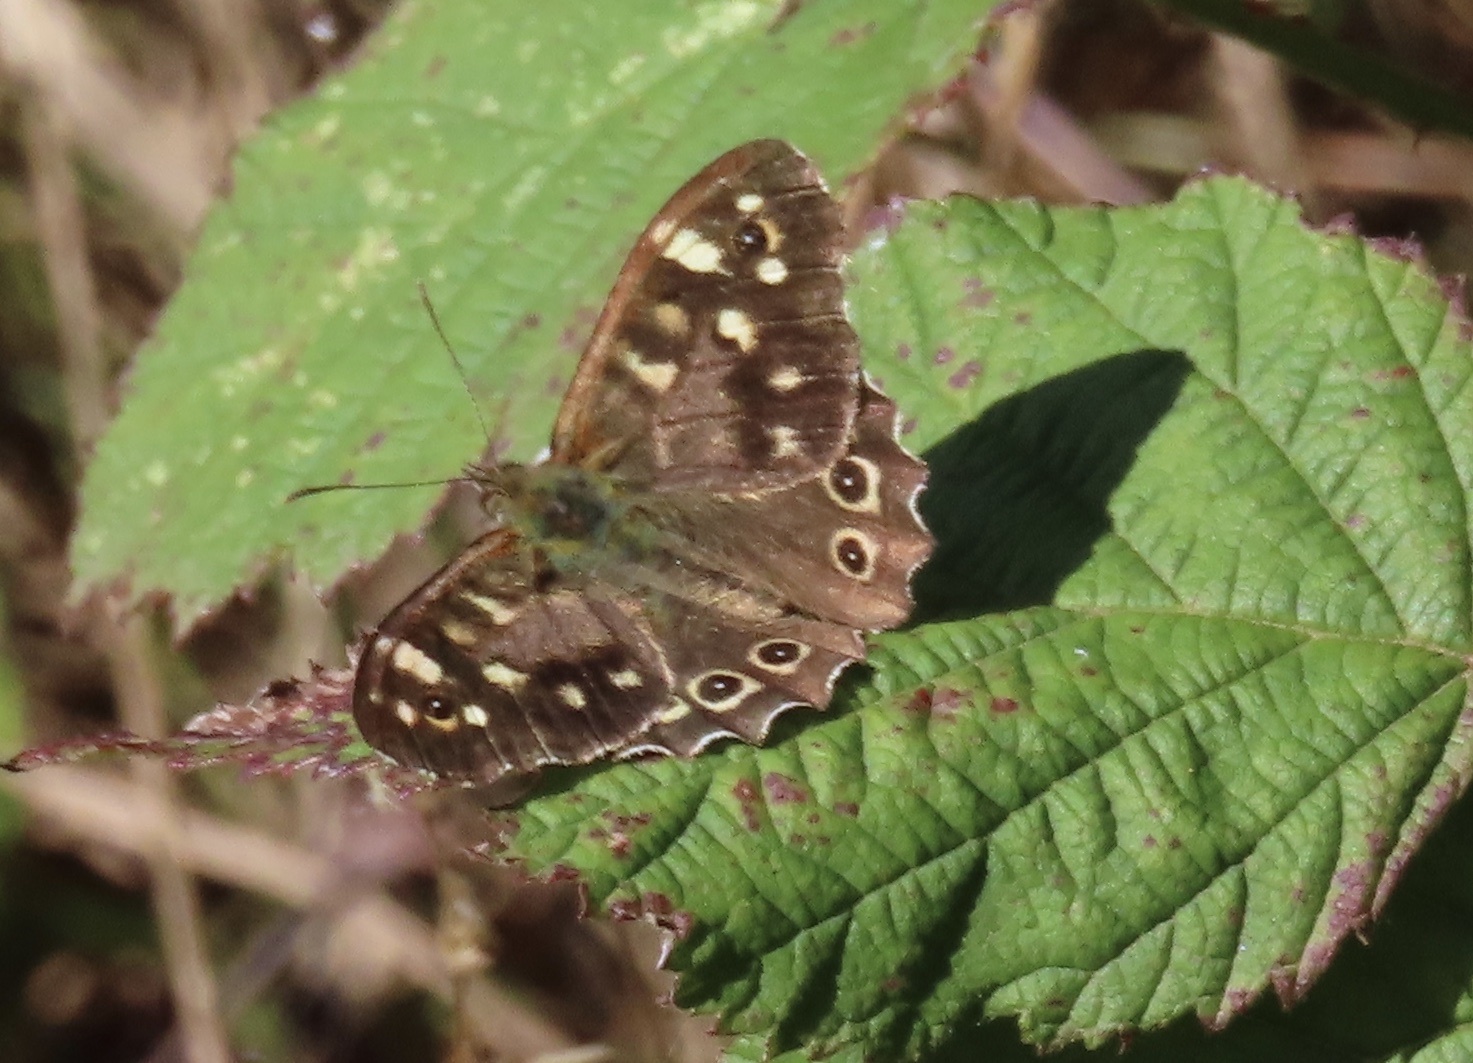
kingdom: Animalia
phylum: Arthropoda
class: Insecta
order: Lepidoptera
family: Nymphalidae
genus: Pararge
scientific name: Pararge aegeria
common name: Speckled wood
